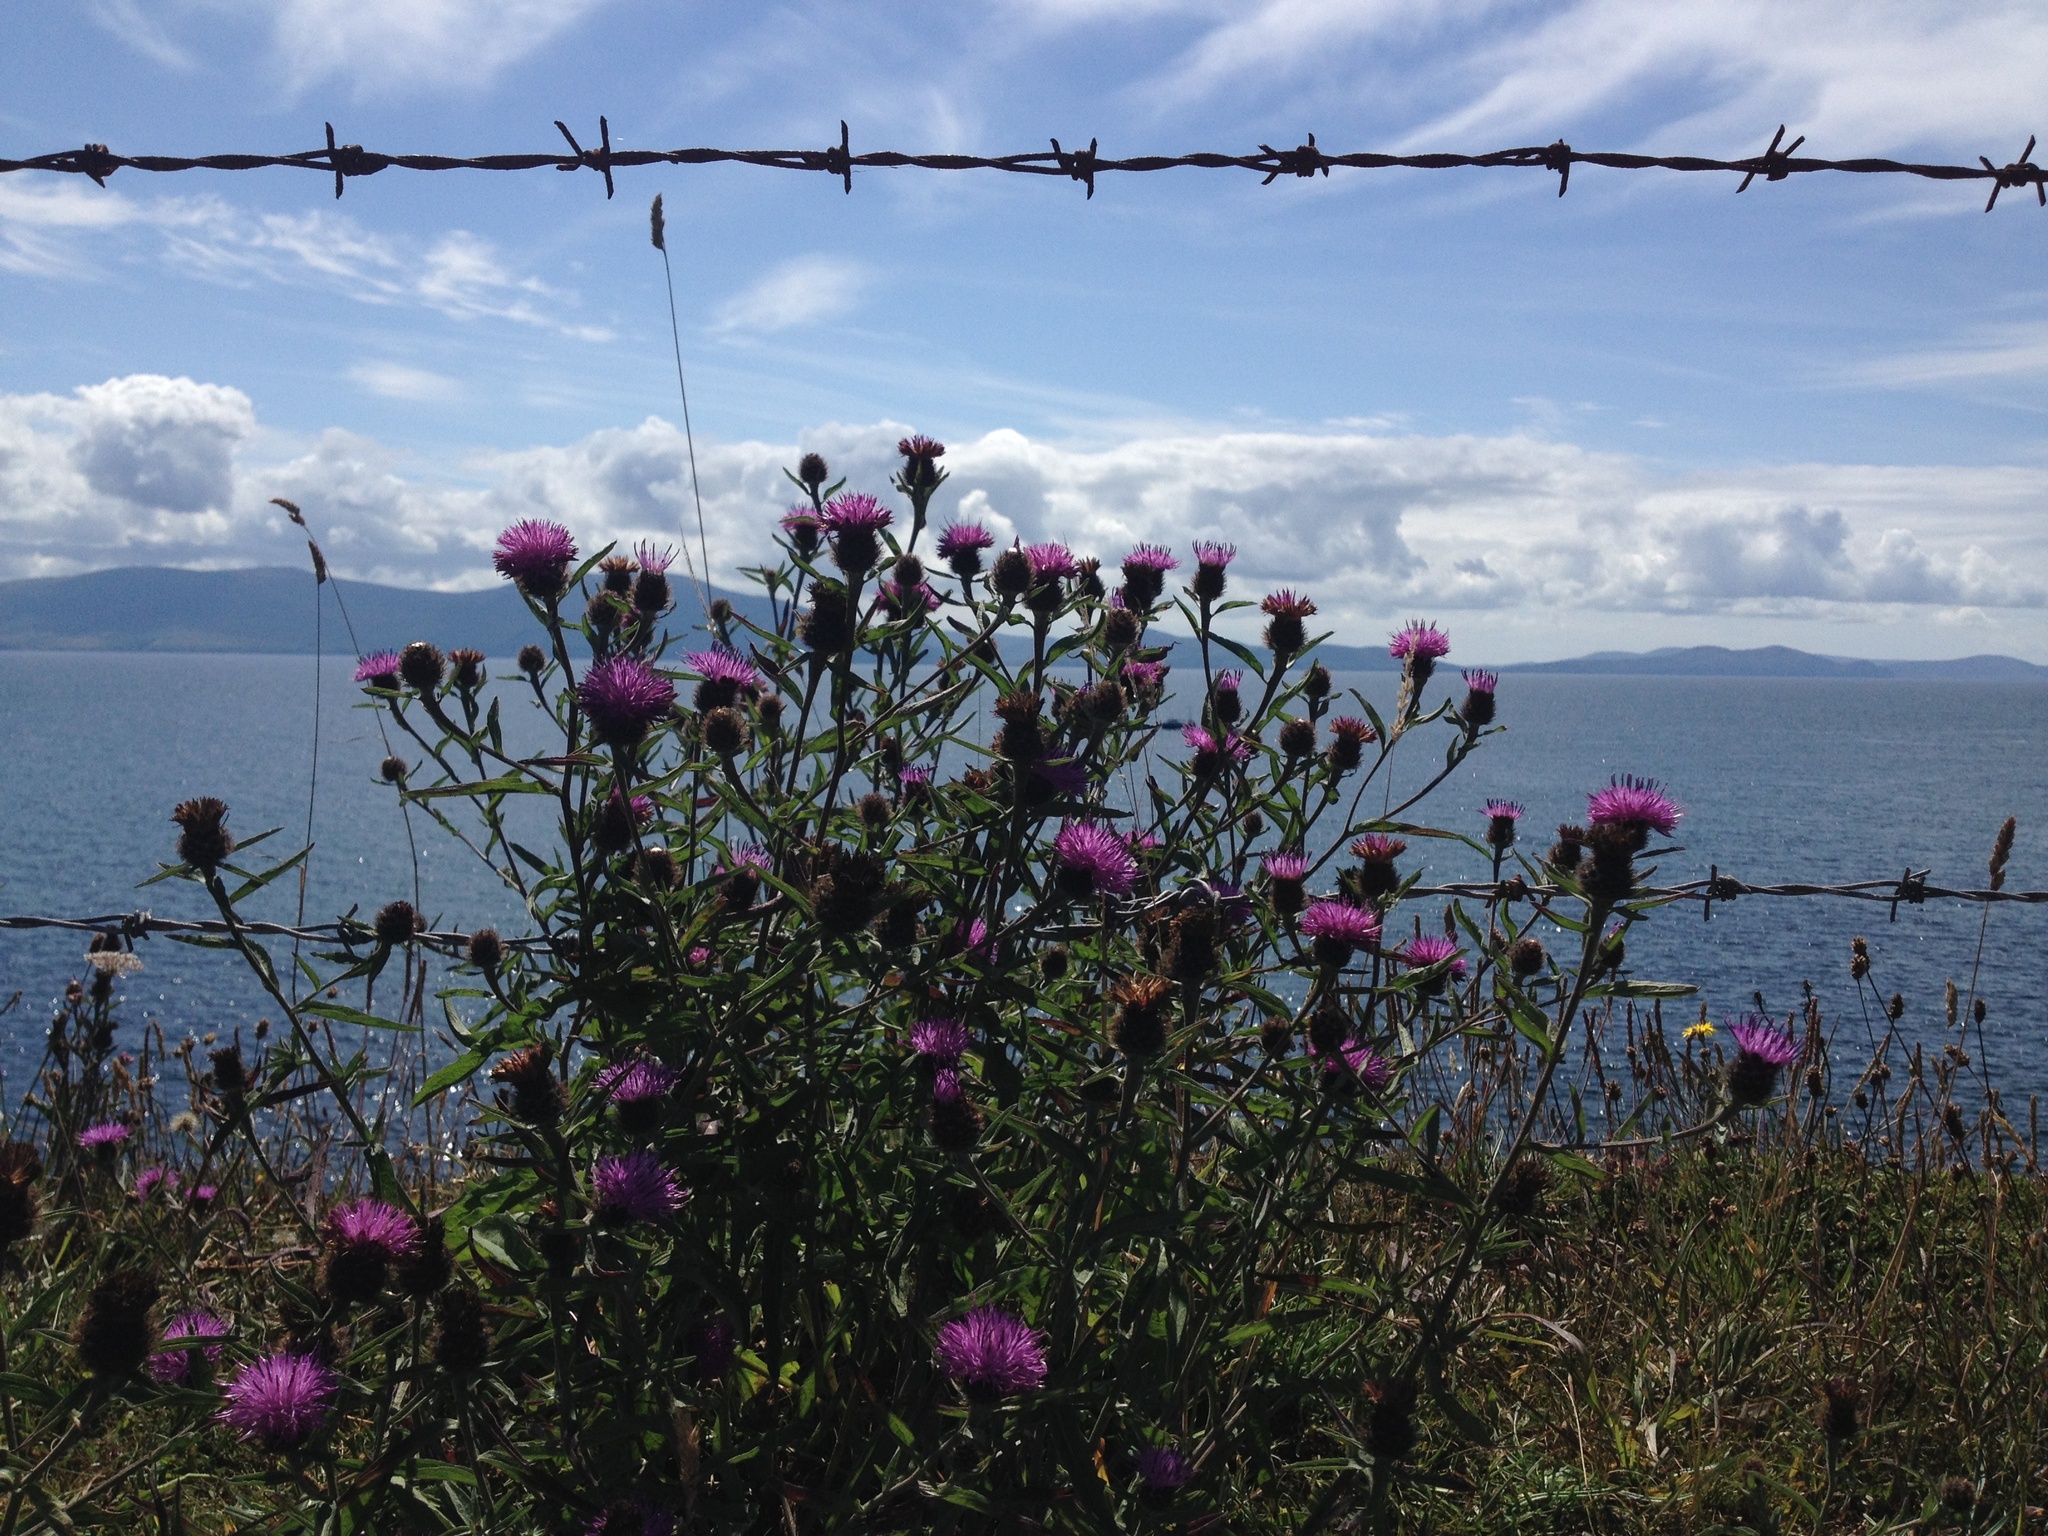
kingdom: Plantae
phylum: Tracheophyta
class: Magnoliopsida
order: Asterales
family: Asteraceae
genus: Centaurea
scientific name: Centaurea nigra
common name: Lesser knapweed
